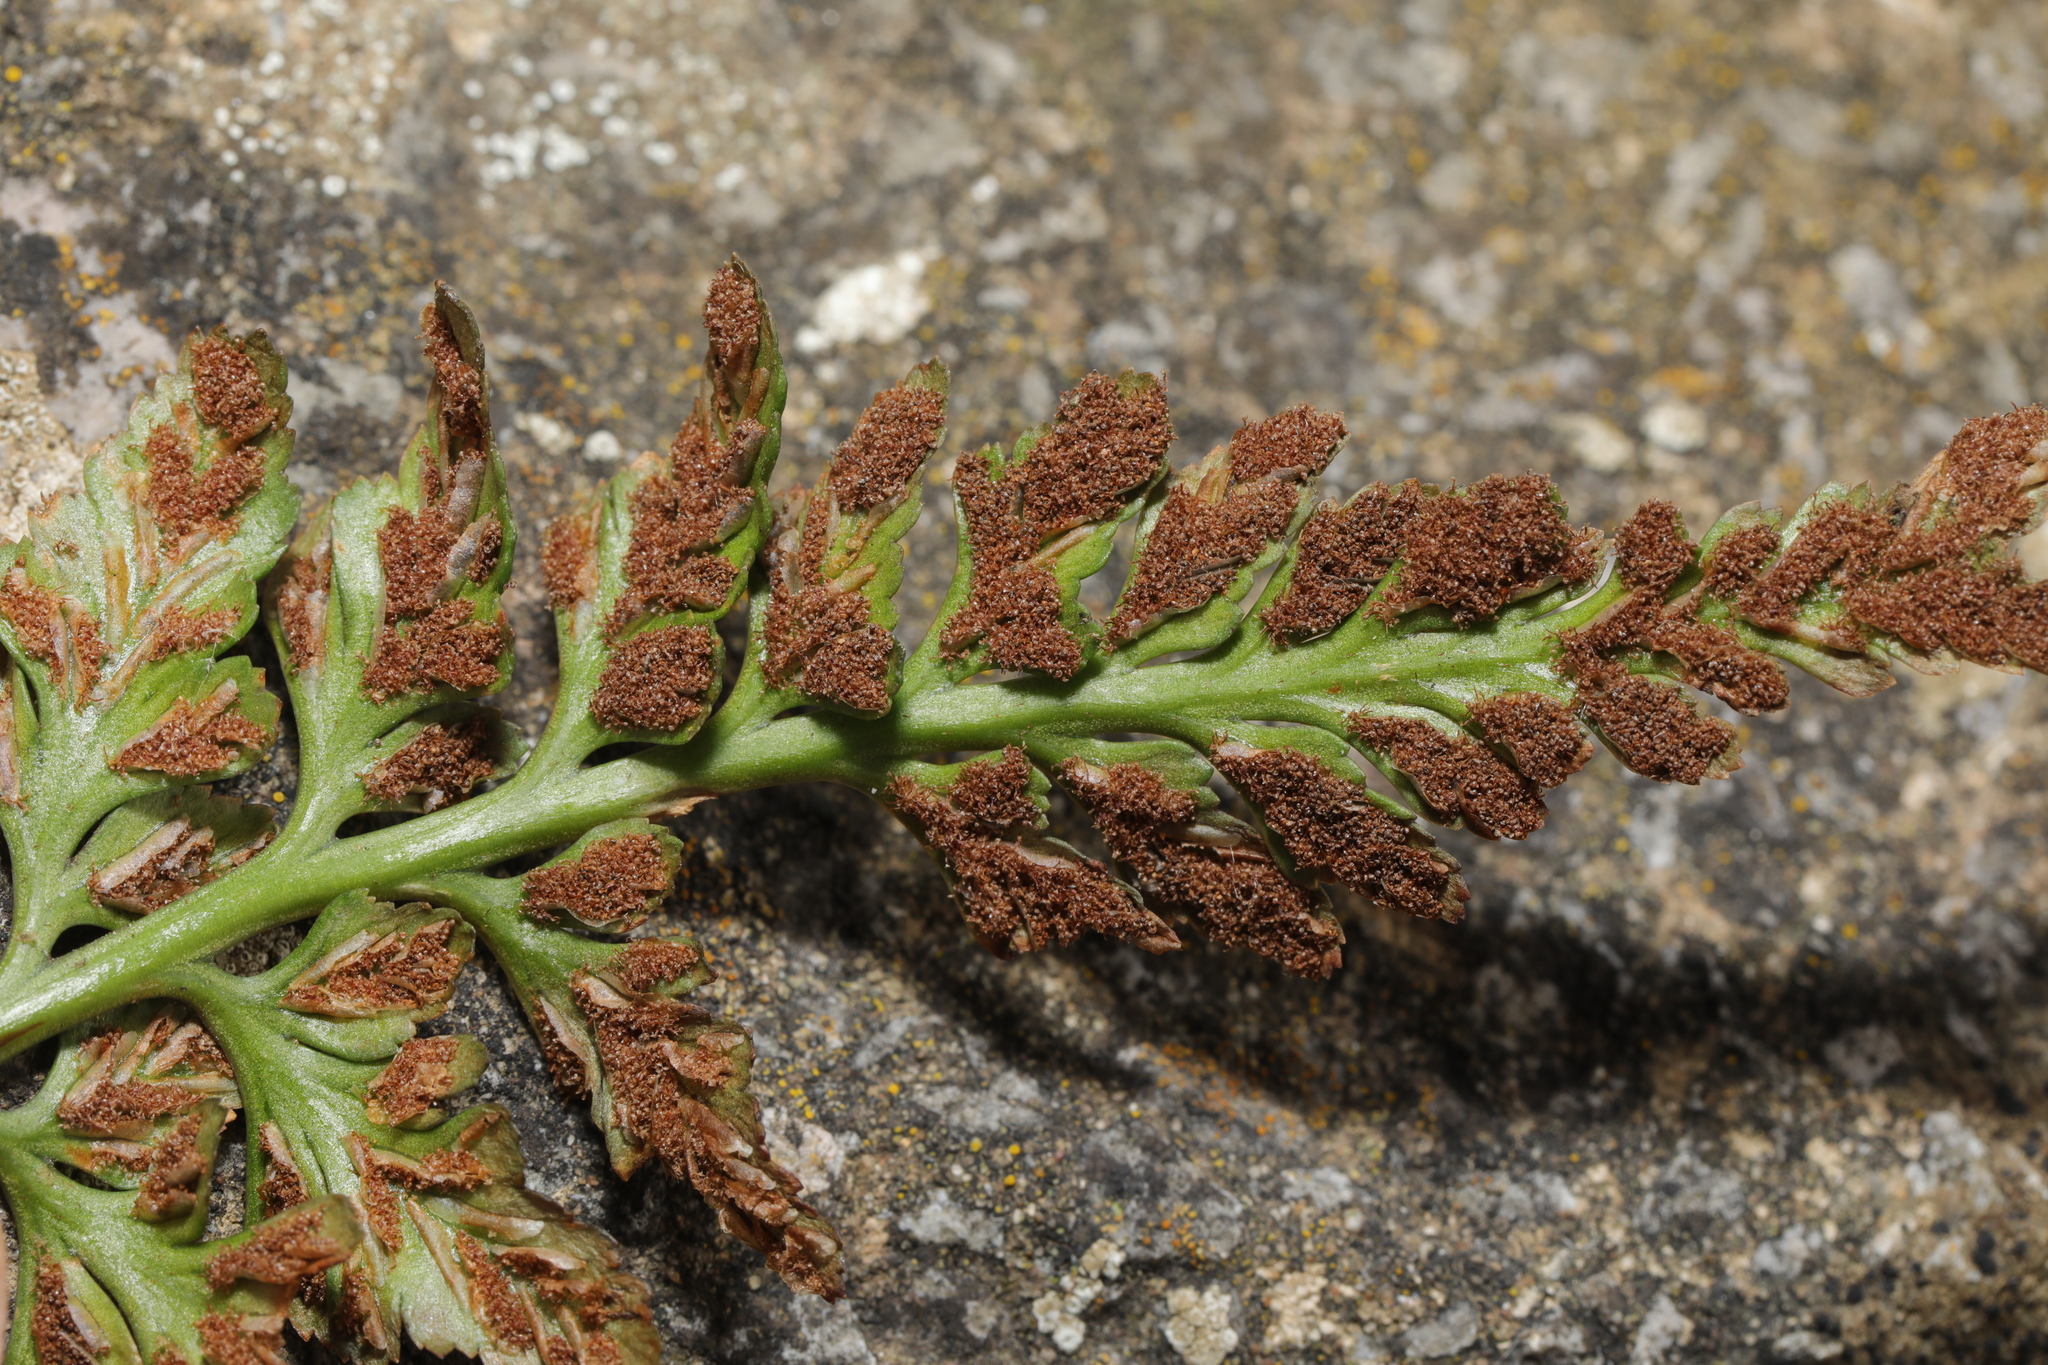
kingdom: Plantae
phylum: Tracheophyta
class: Polypodiopsida
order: Polypodiales
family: Aspleniaceae
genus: Asplenium
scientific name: Asplenium adiantum-nigrum
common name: Black spleenwort
